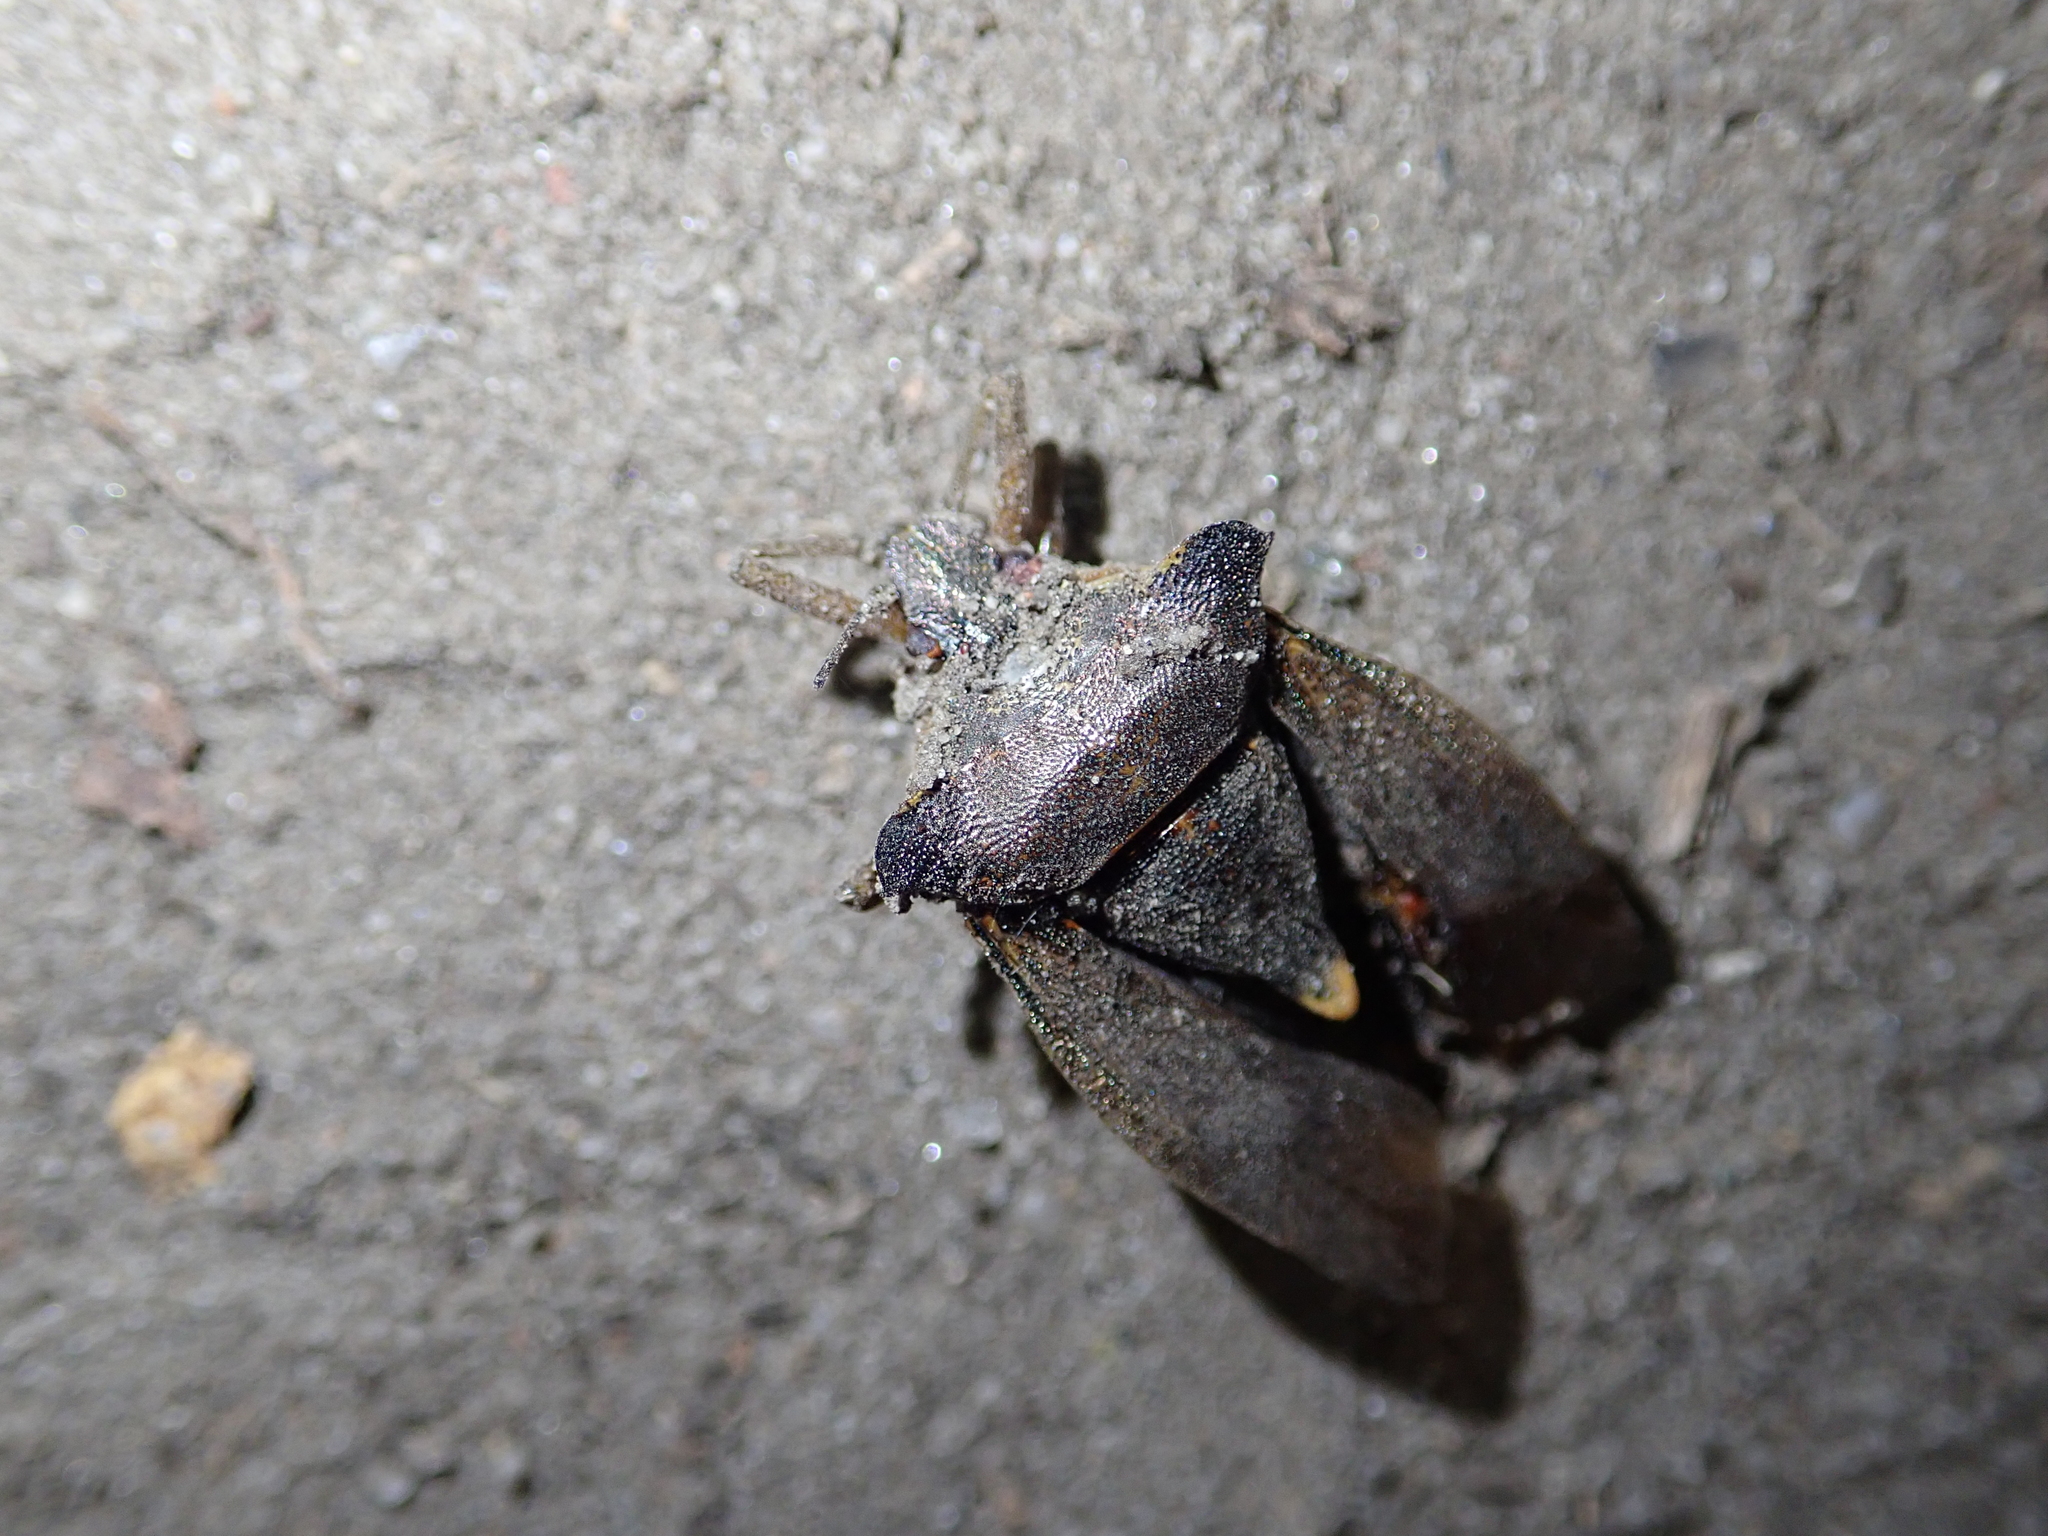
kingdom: Animalia
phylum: Arthropoda
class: Insecta
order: Hemiptera
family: Pentatomidae
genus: Pentatoma
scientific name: Pentatoma rufipes
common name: Forest bug
